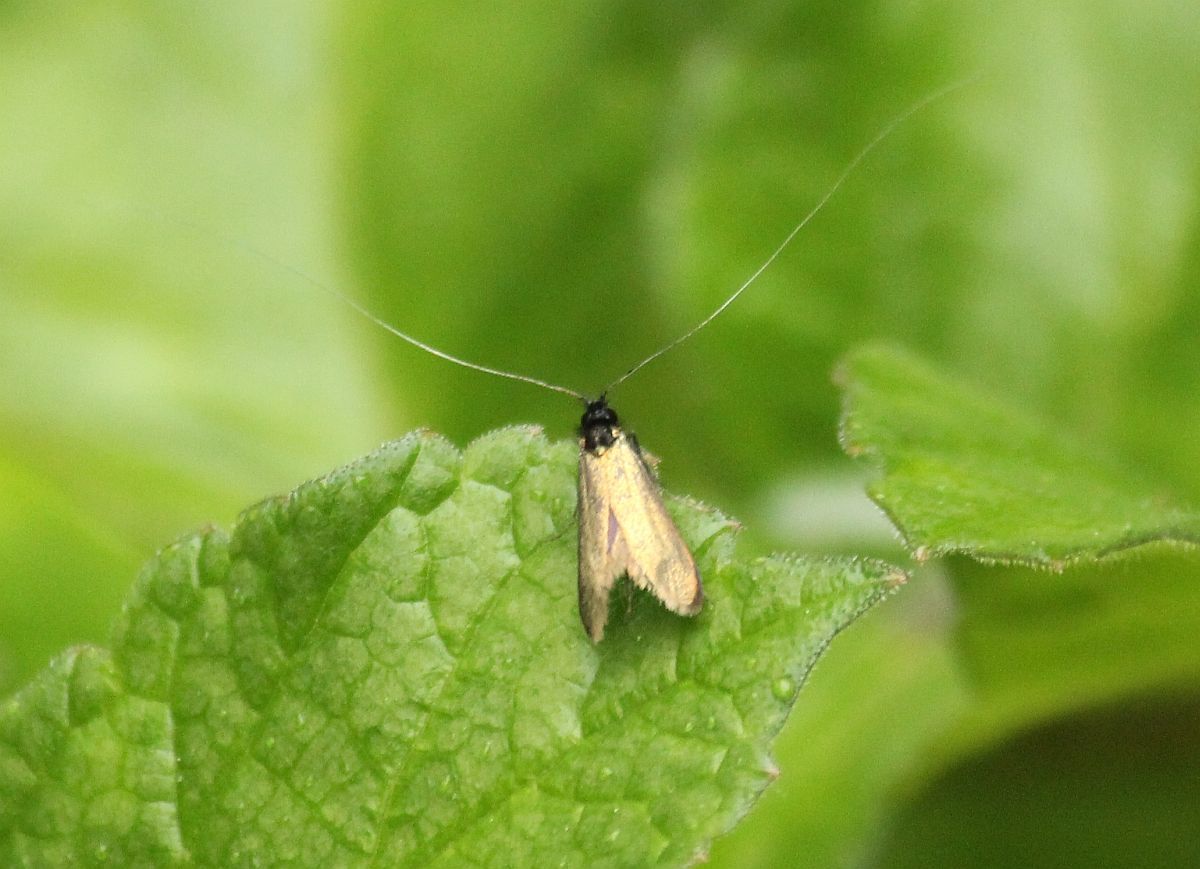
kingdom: Animalia
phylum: Arthropoda
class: Insecta
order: Lepidoptera
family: Adelidae
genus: Adela
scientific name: Adela viridella
